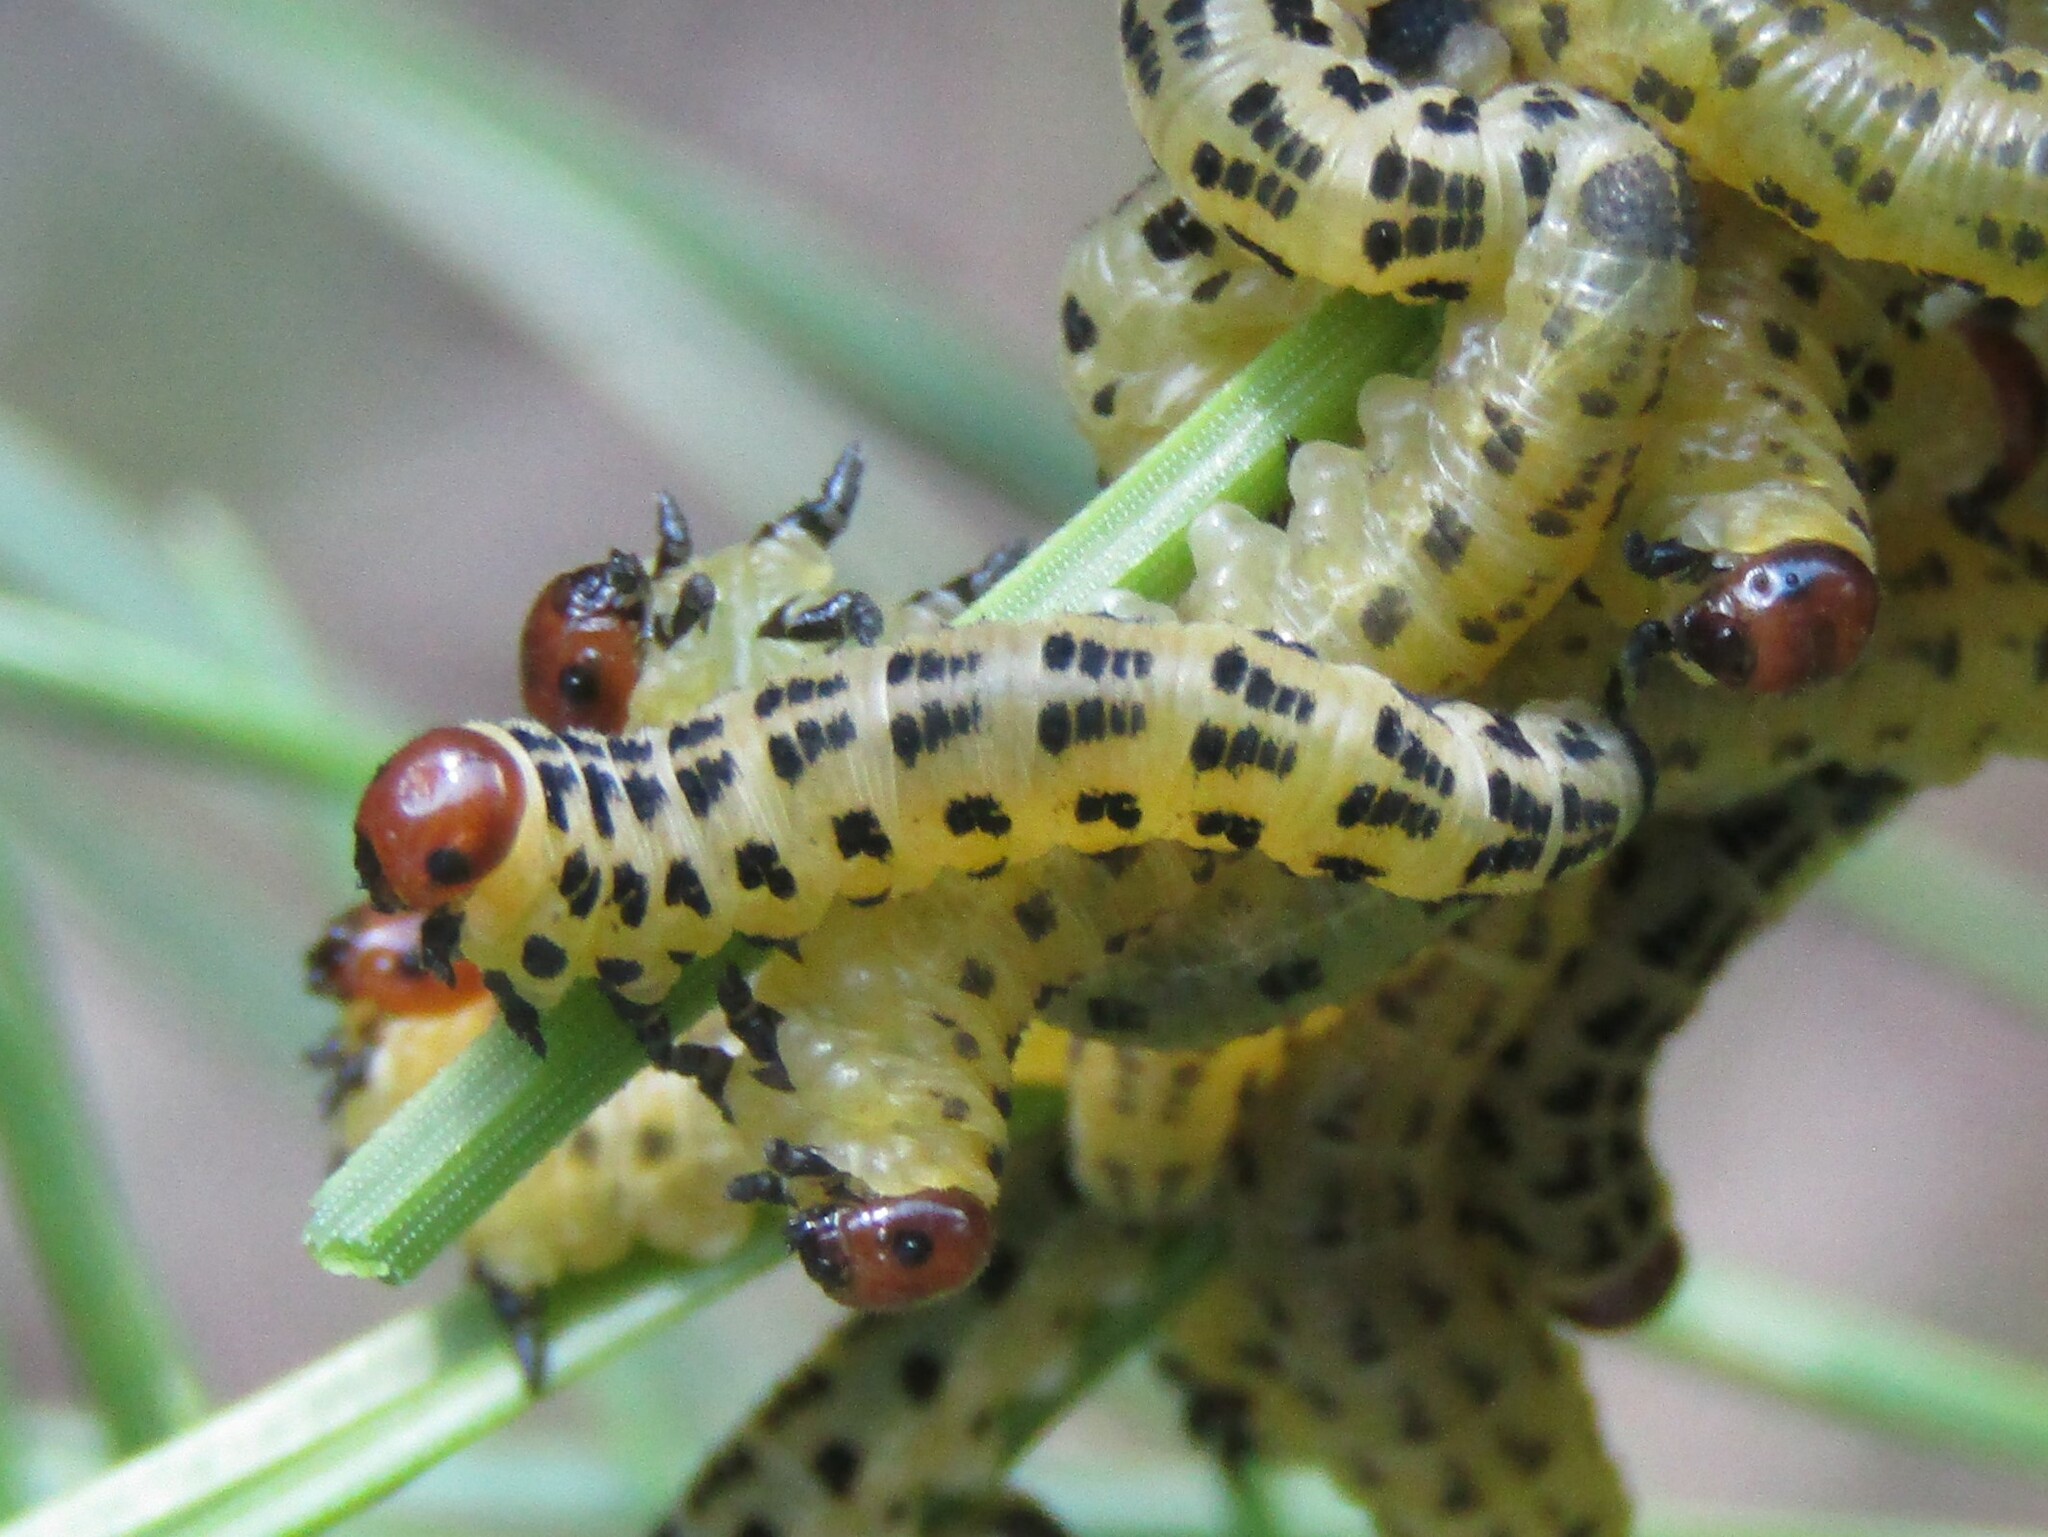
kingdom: Animalia
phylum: Arthropoda
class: Insecta
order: Hymenoptera
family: Diprionidae
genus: Neodiprion
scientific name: Neodiprion lecontei
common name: Redheaded pine sawfly
